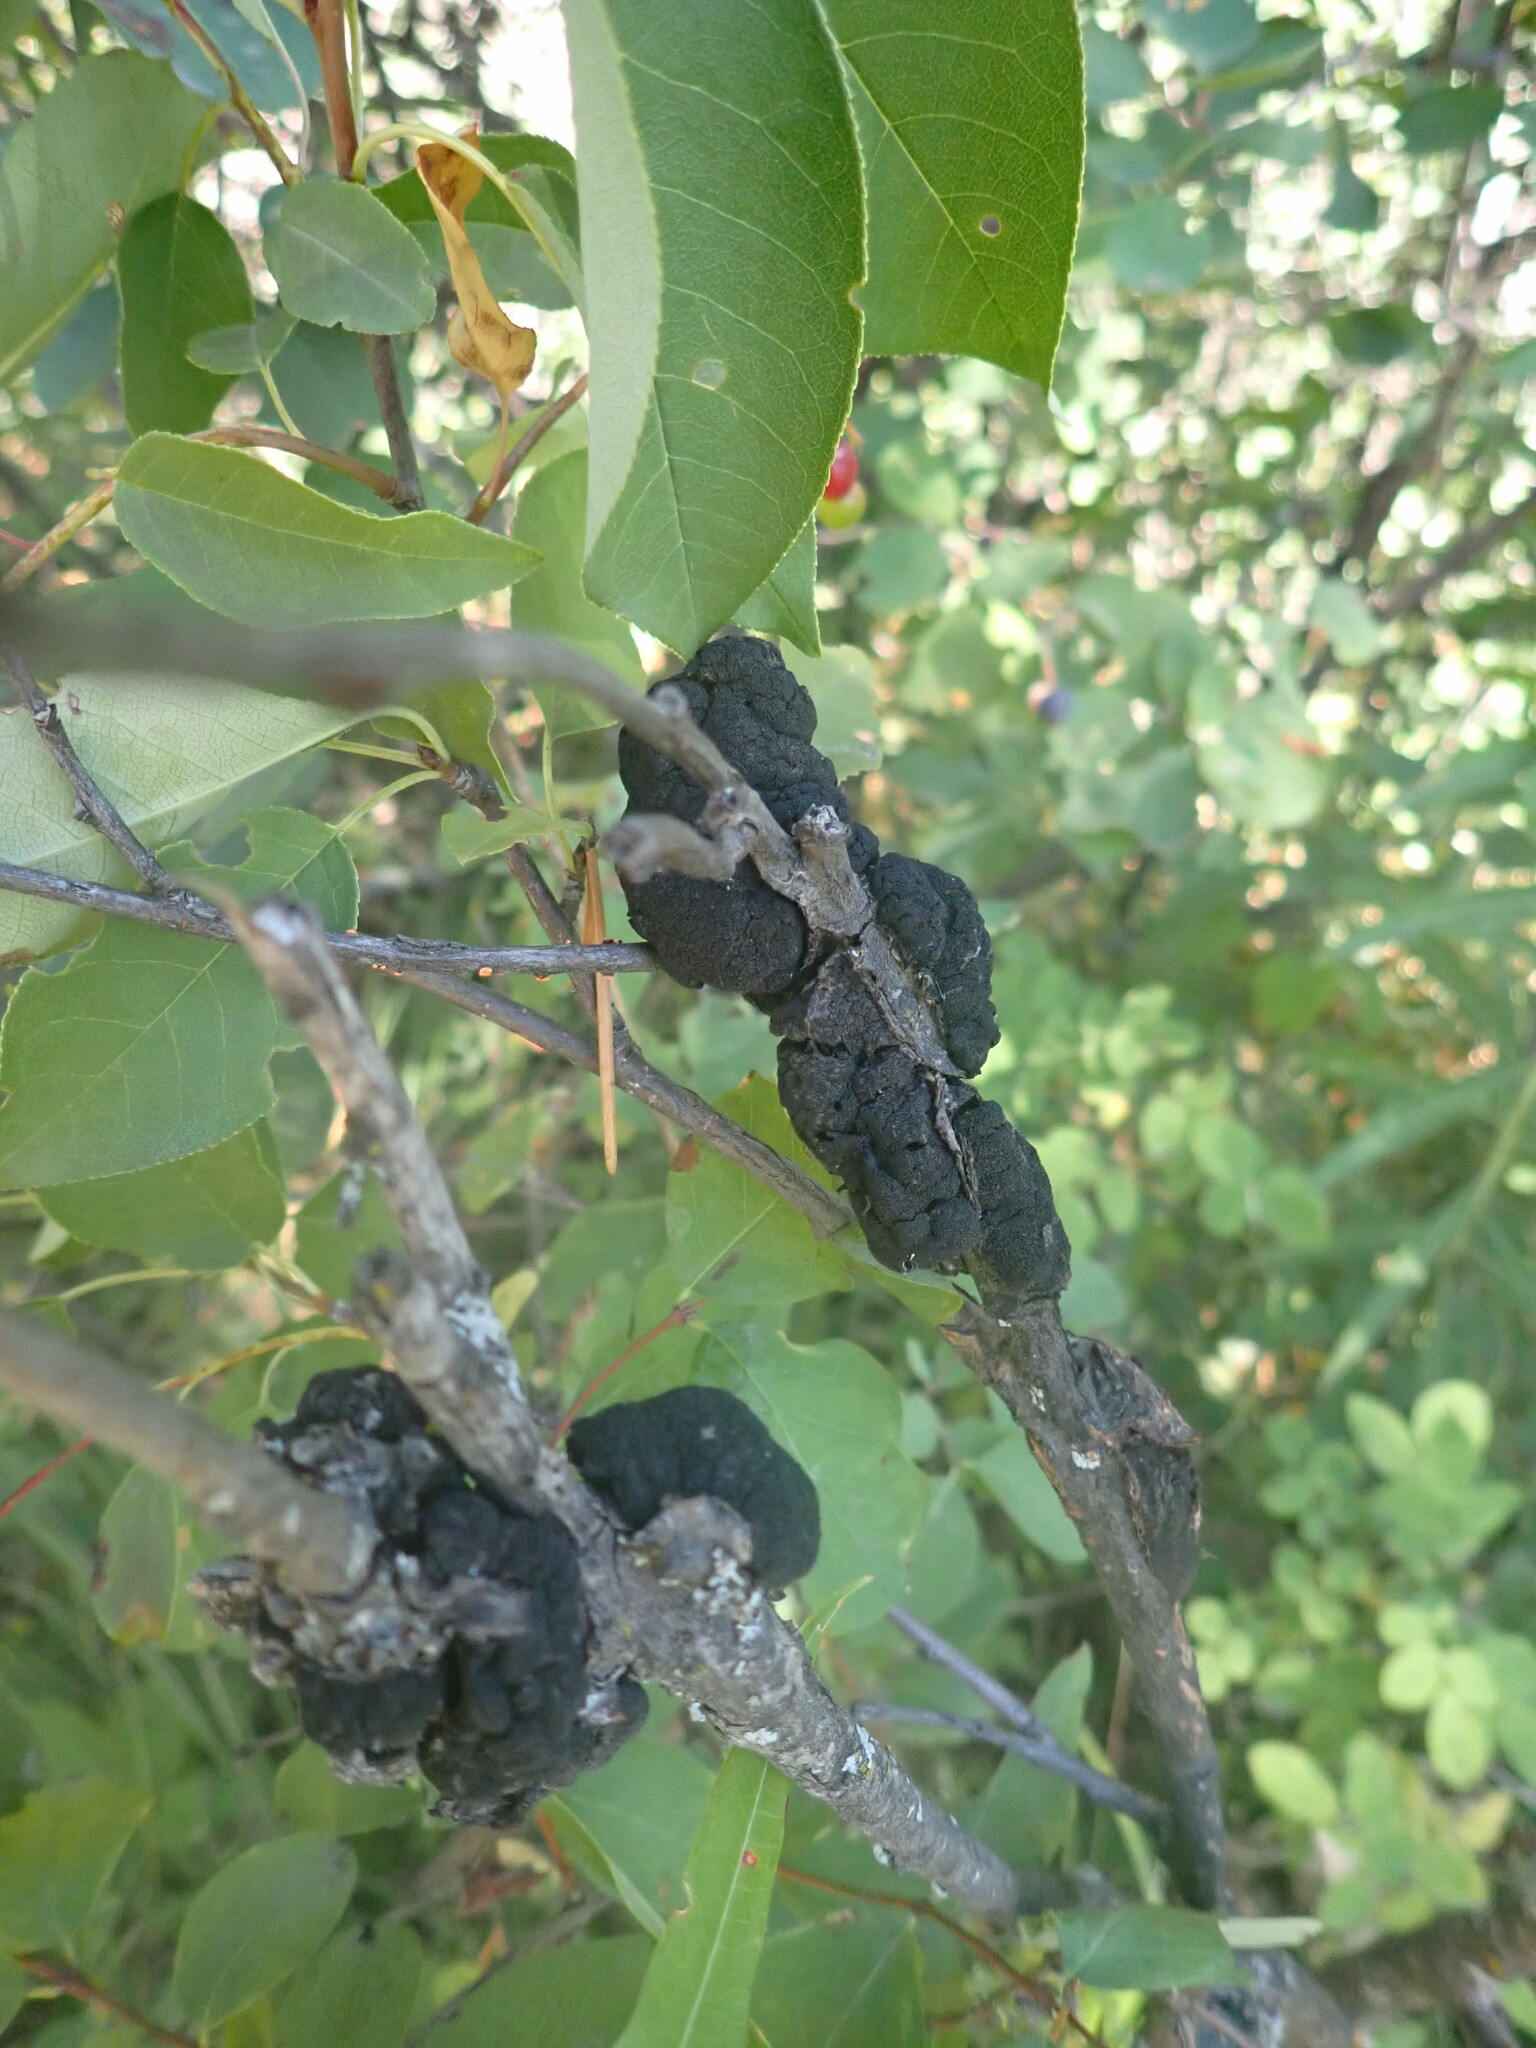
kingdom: Fungi
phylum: Ascomycota
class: Dothideomycetes
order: Venturiales
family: Venturiaceae
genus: Apiosporina
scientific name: Apiosporina morbosa
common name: Black knot
